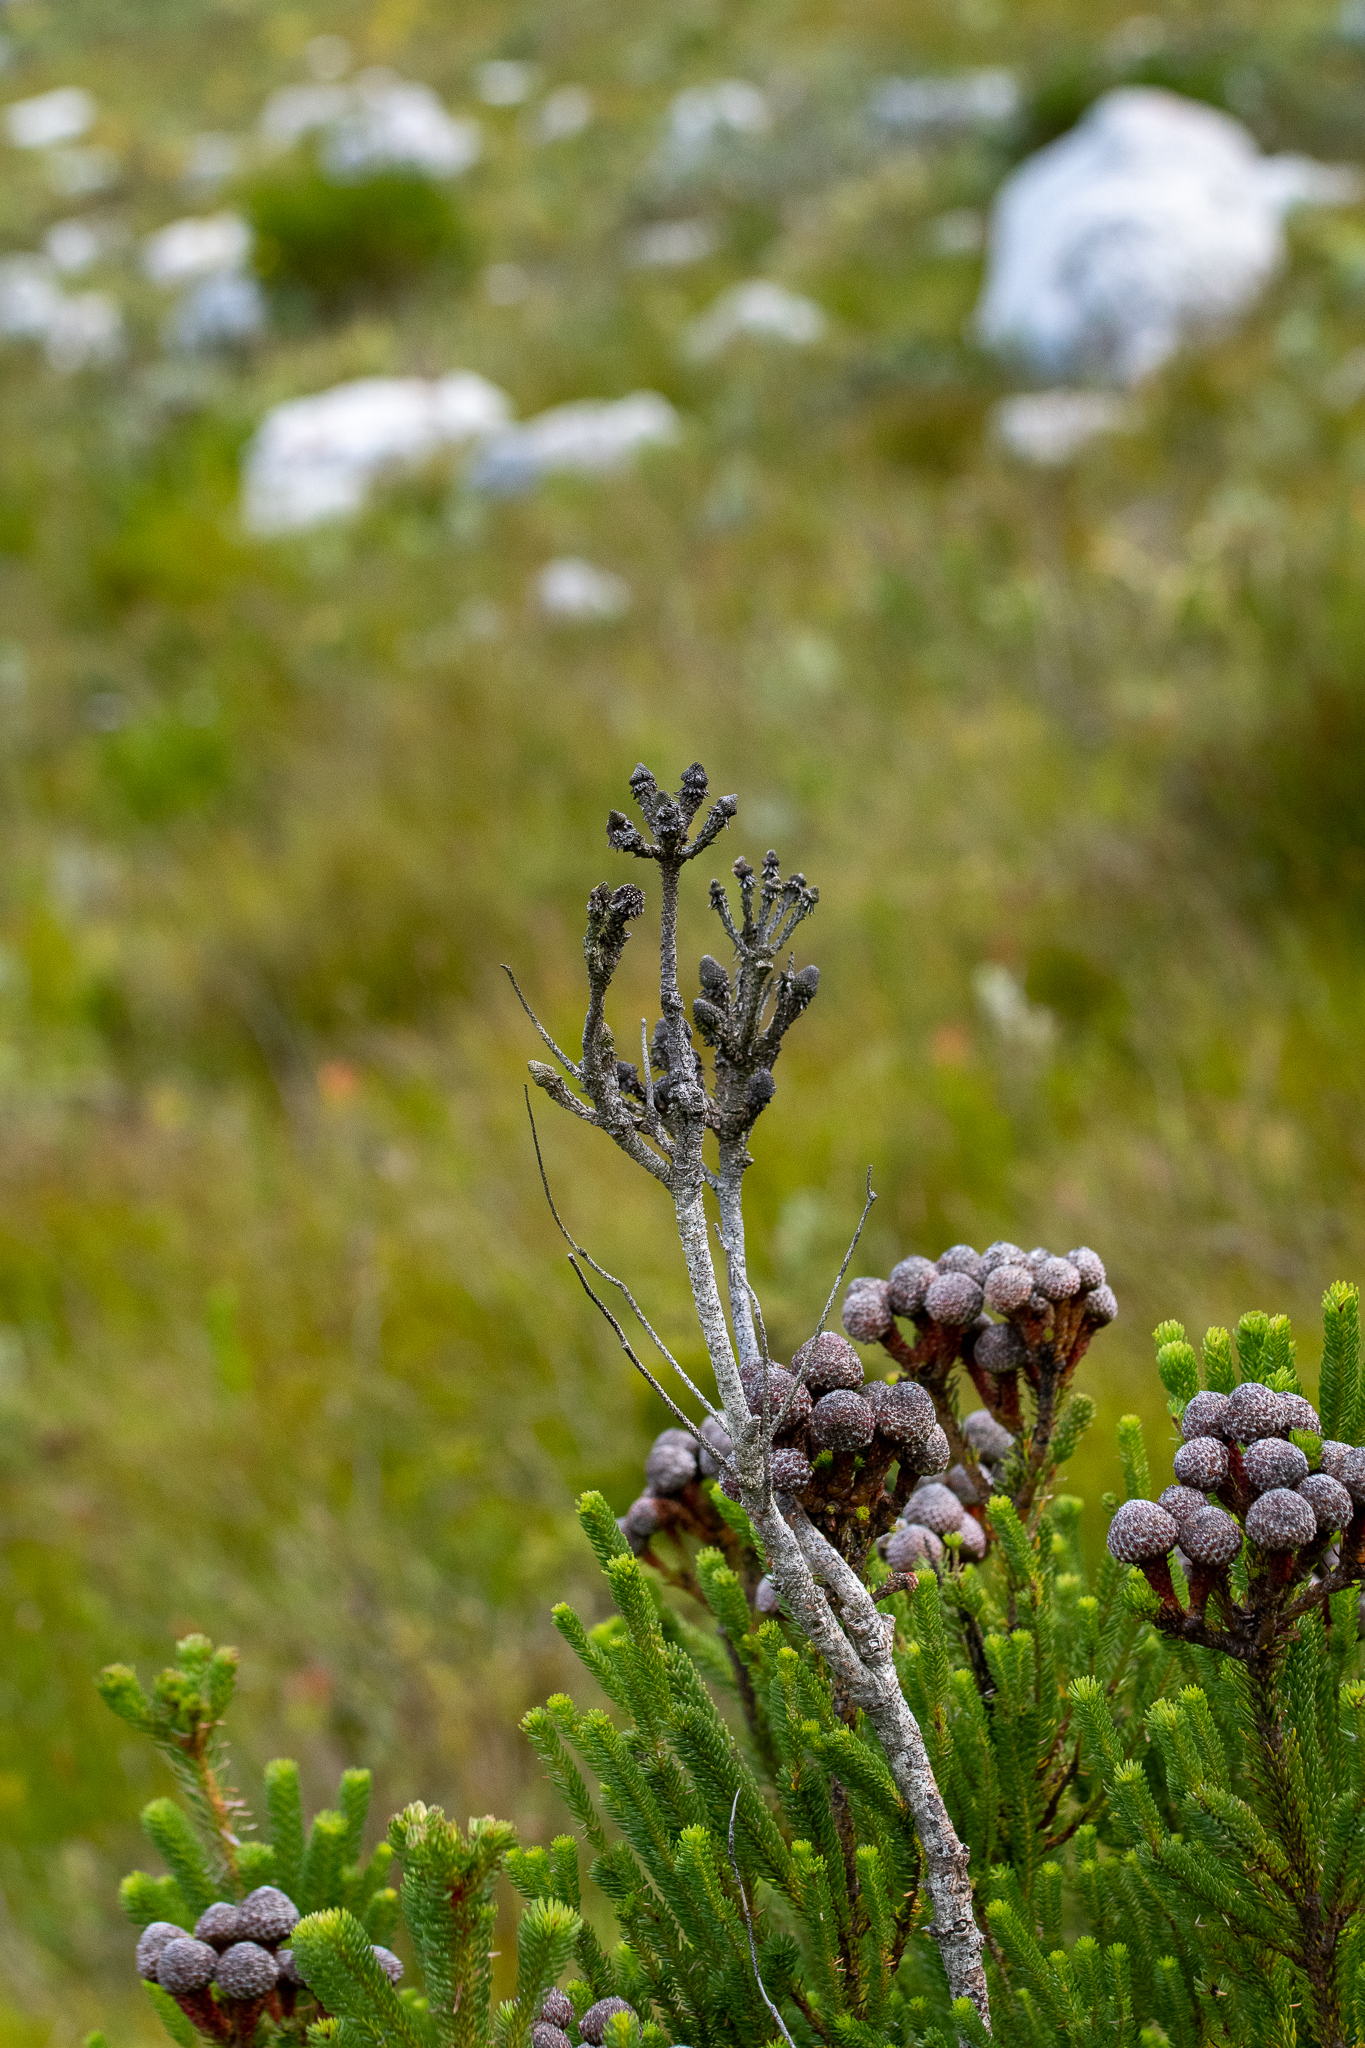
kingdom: Plantae
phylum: Tracheophyta
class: Magnoliopsida
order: Bruniales
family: Bruniaceae
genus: Berzelia
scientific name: Berzelia stokoei
